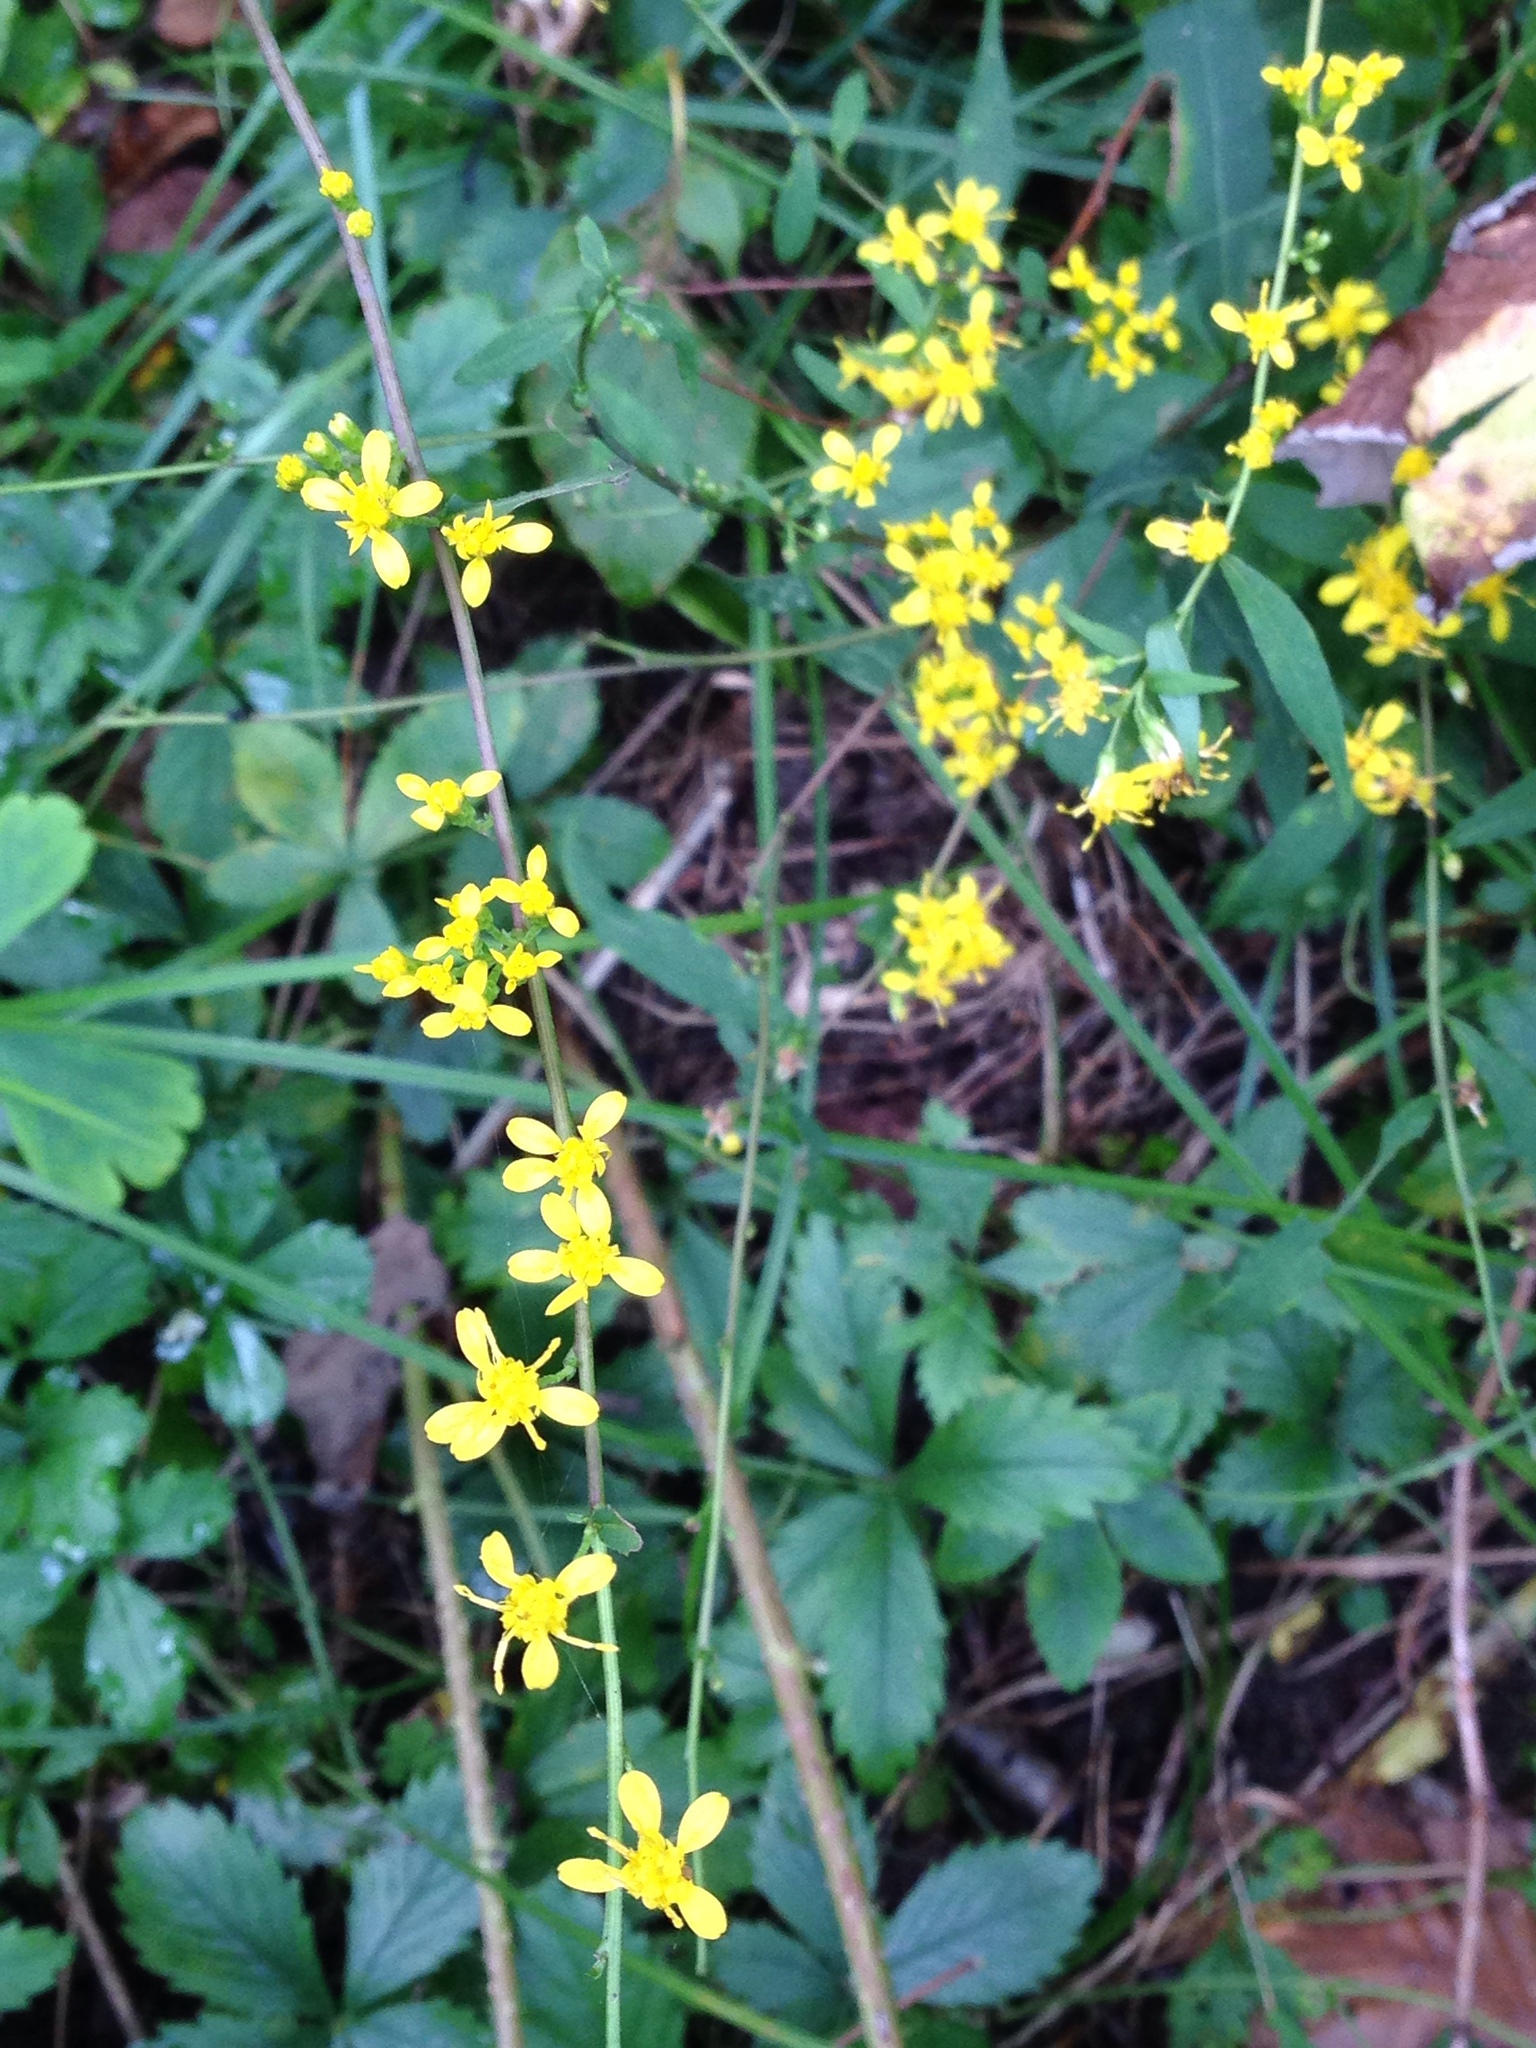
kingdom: Plantae
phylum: Tracheophyta
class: Magnoliopsida
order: Asterales
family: Asteraceae
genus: Solidago
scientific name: Solidago caesia
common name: Woodland goldenrod
